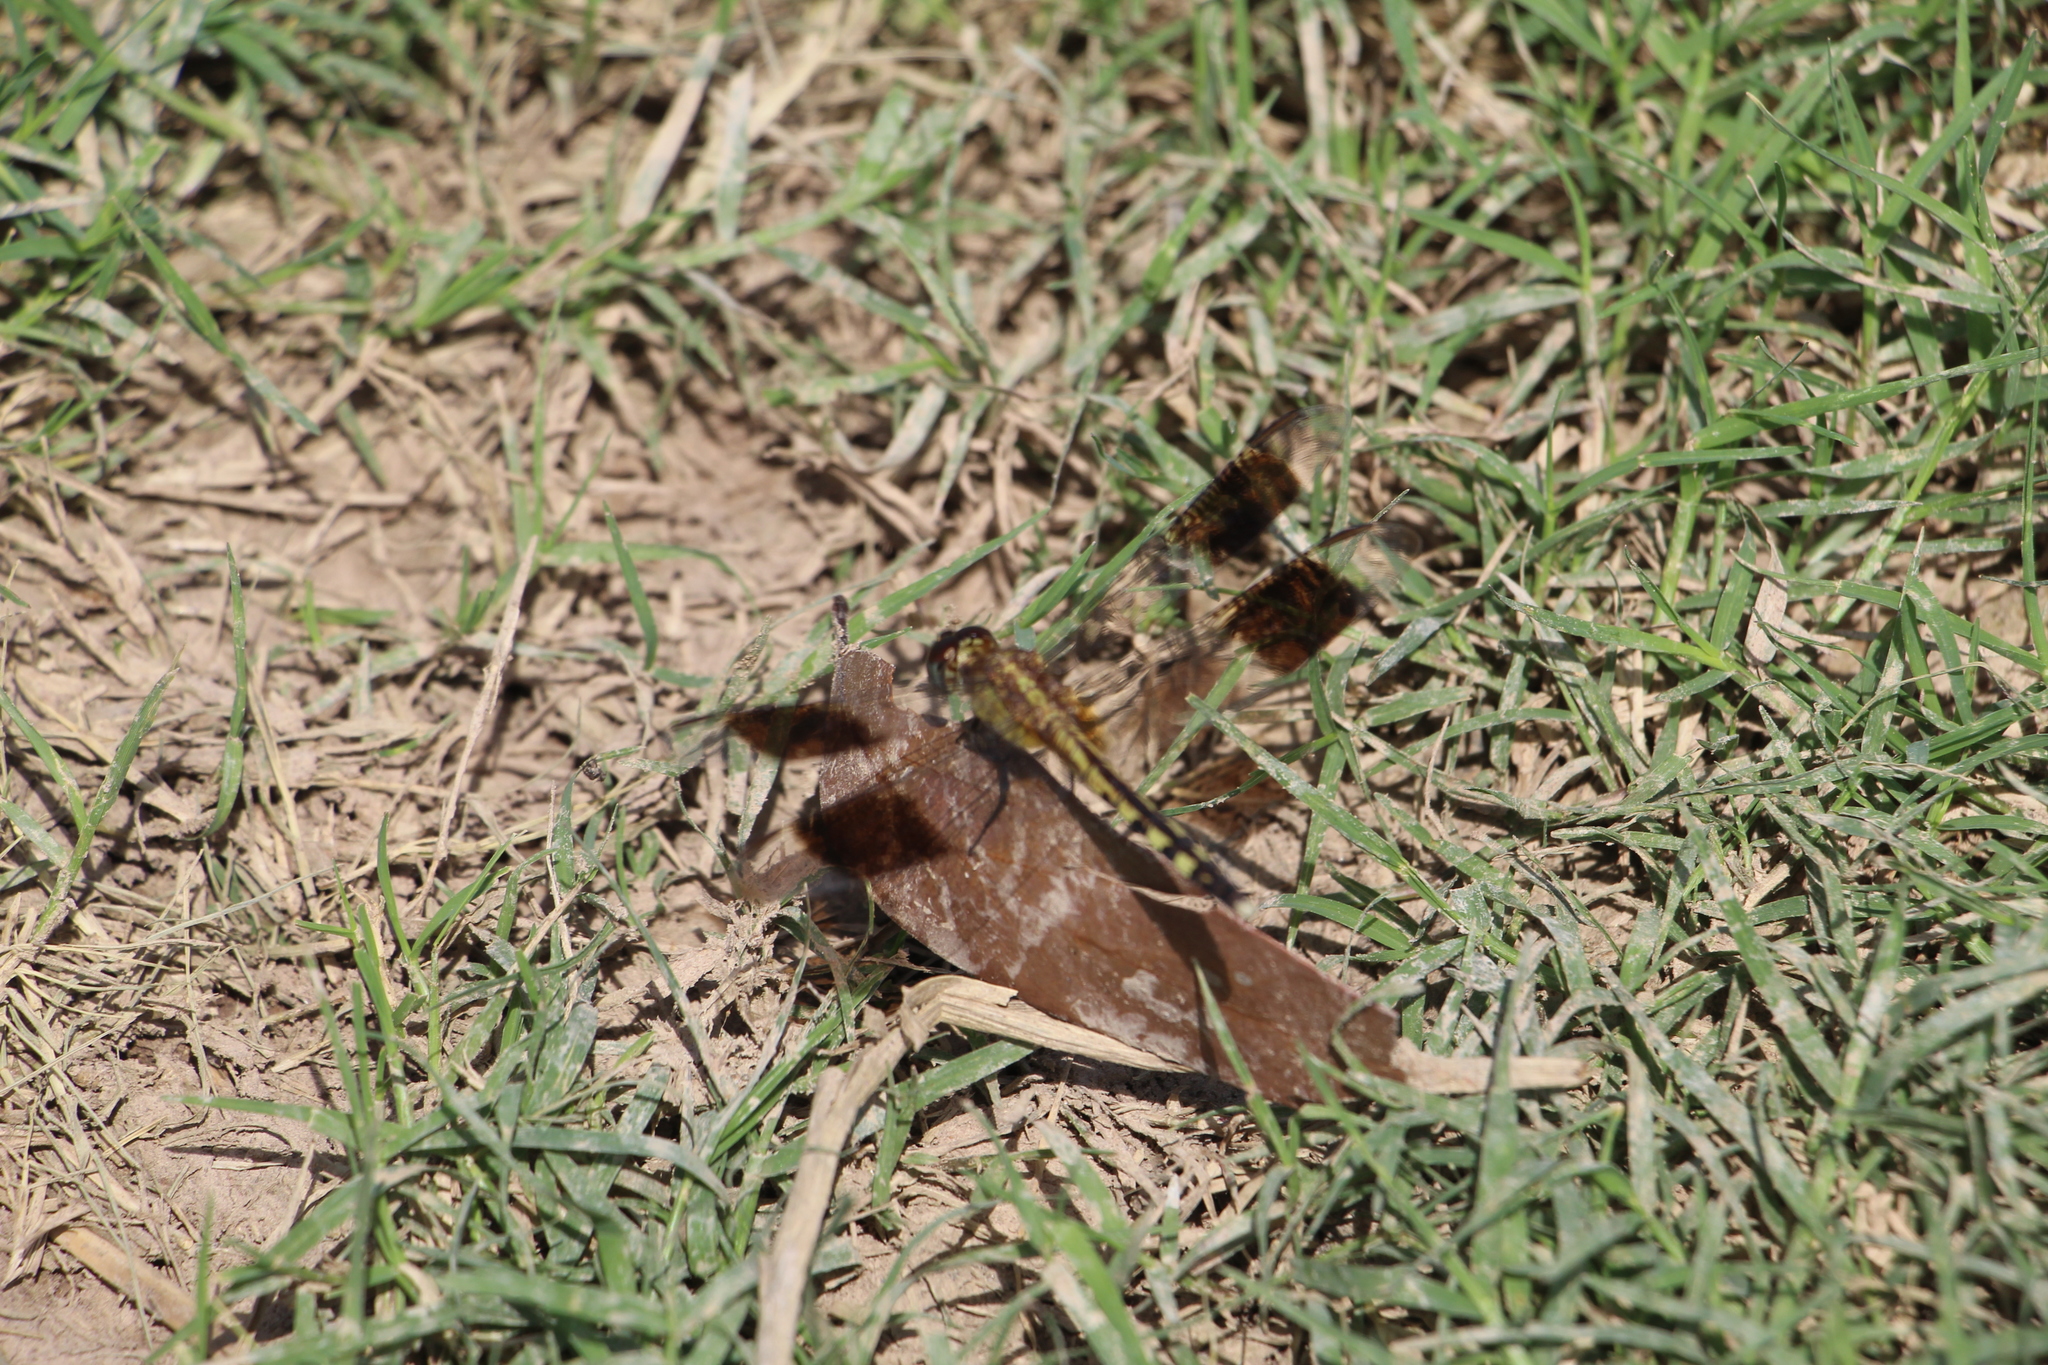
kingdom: Animalia
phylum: Arthropoda
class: Insecta
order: Odonata
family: Libellulidae
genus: Erythrodiplax
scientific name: Erythrodiplax umbrata
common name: Band-winged dragonlet
